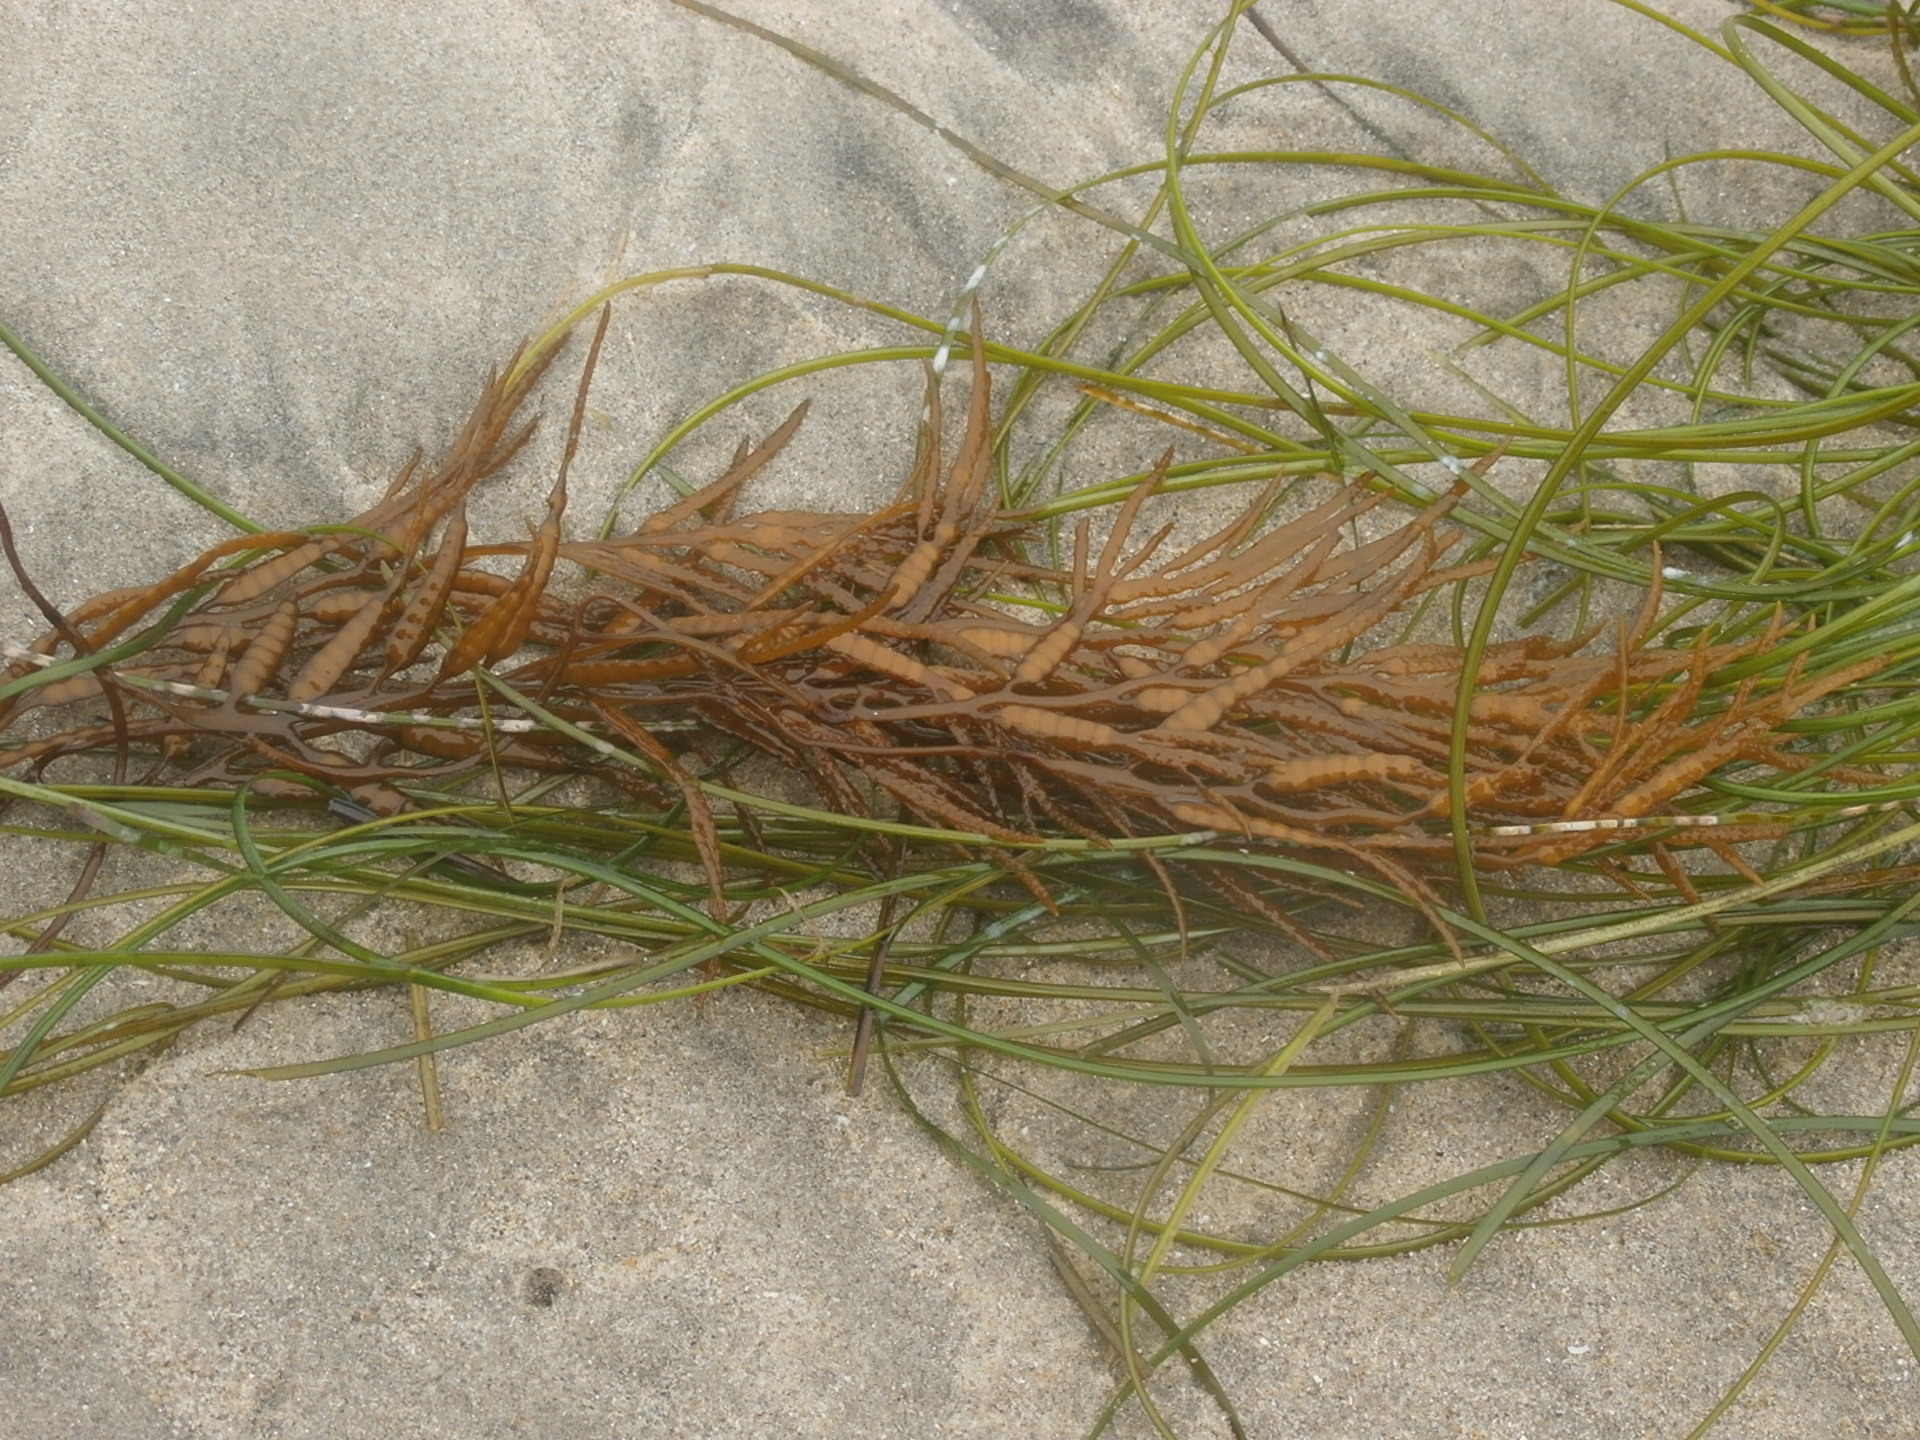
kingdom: Chromista
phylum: Ochrophyta
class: Phaeophyceae
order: Fucales
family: Sargassaceae
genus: Stephanocystis
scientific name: Stephanocystis
